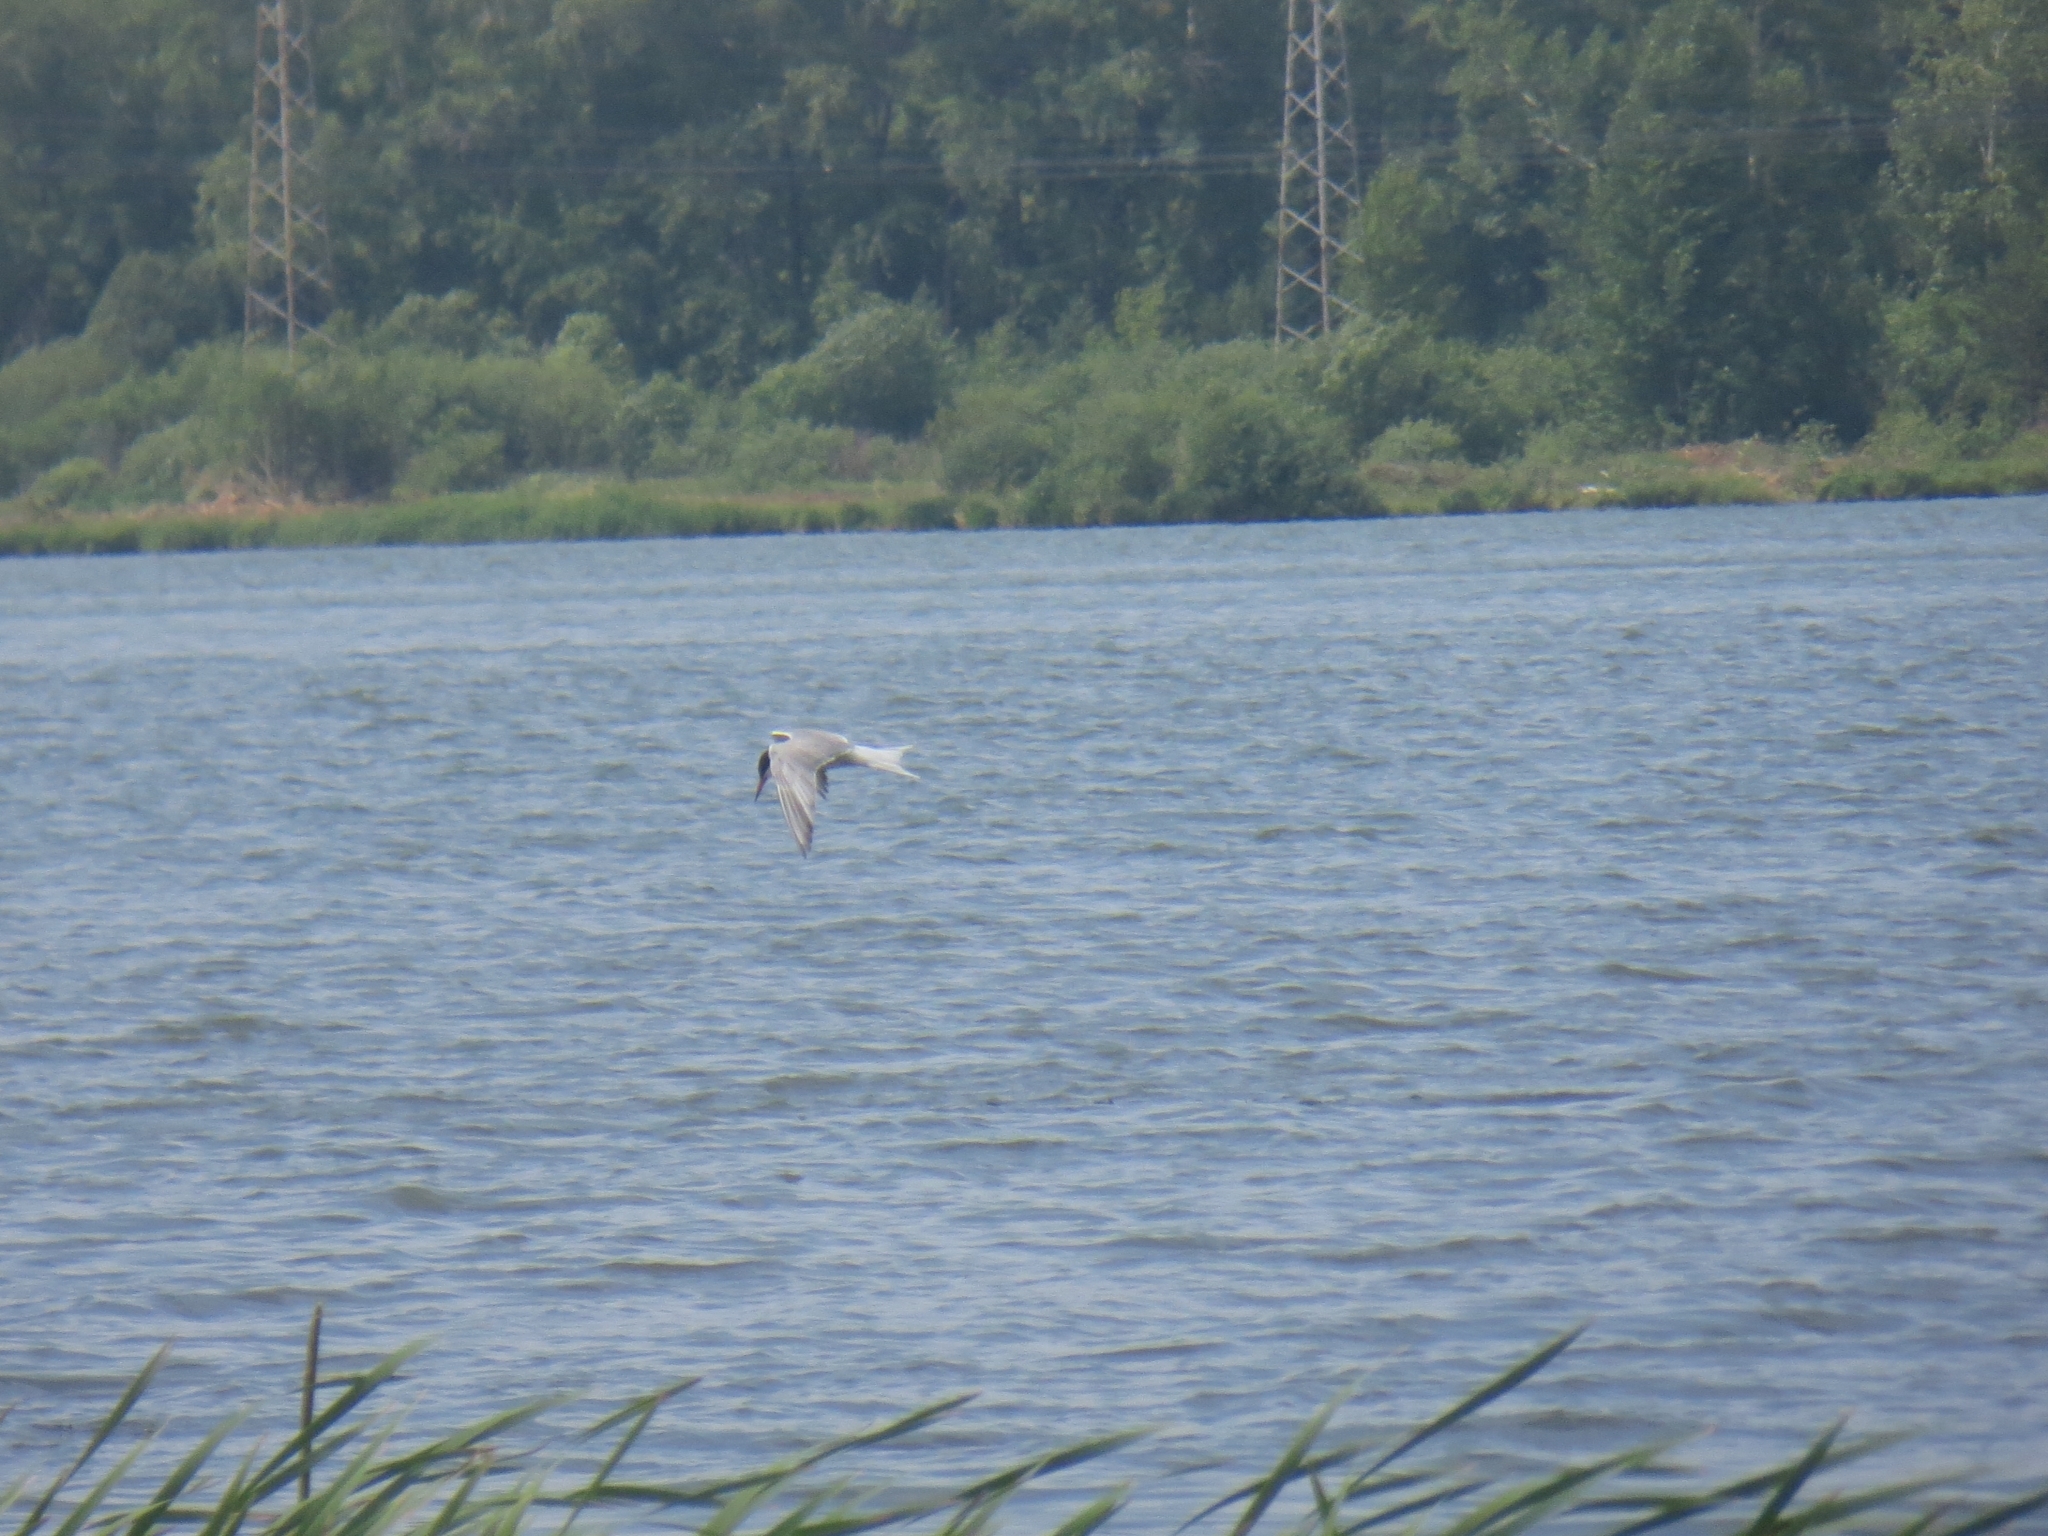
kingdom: Animalia
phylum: Chordata
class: Aves
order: Charadriiformes
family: Laridae
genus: Sterna
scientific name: Sterna hirundo
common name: Common tern
